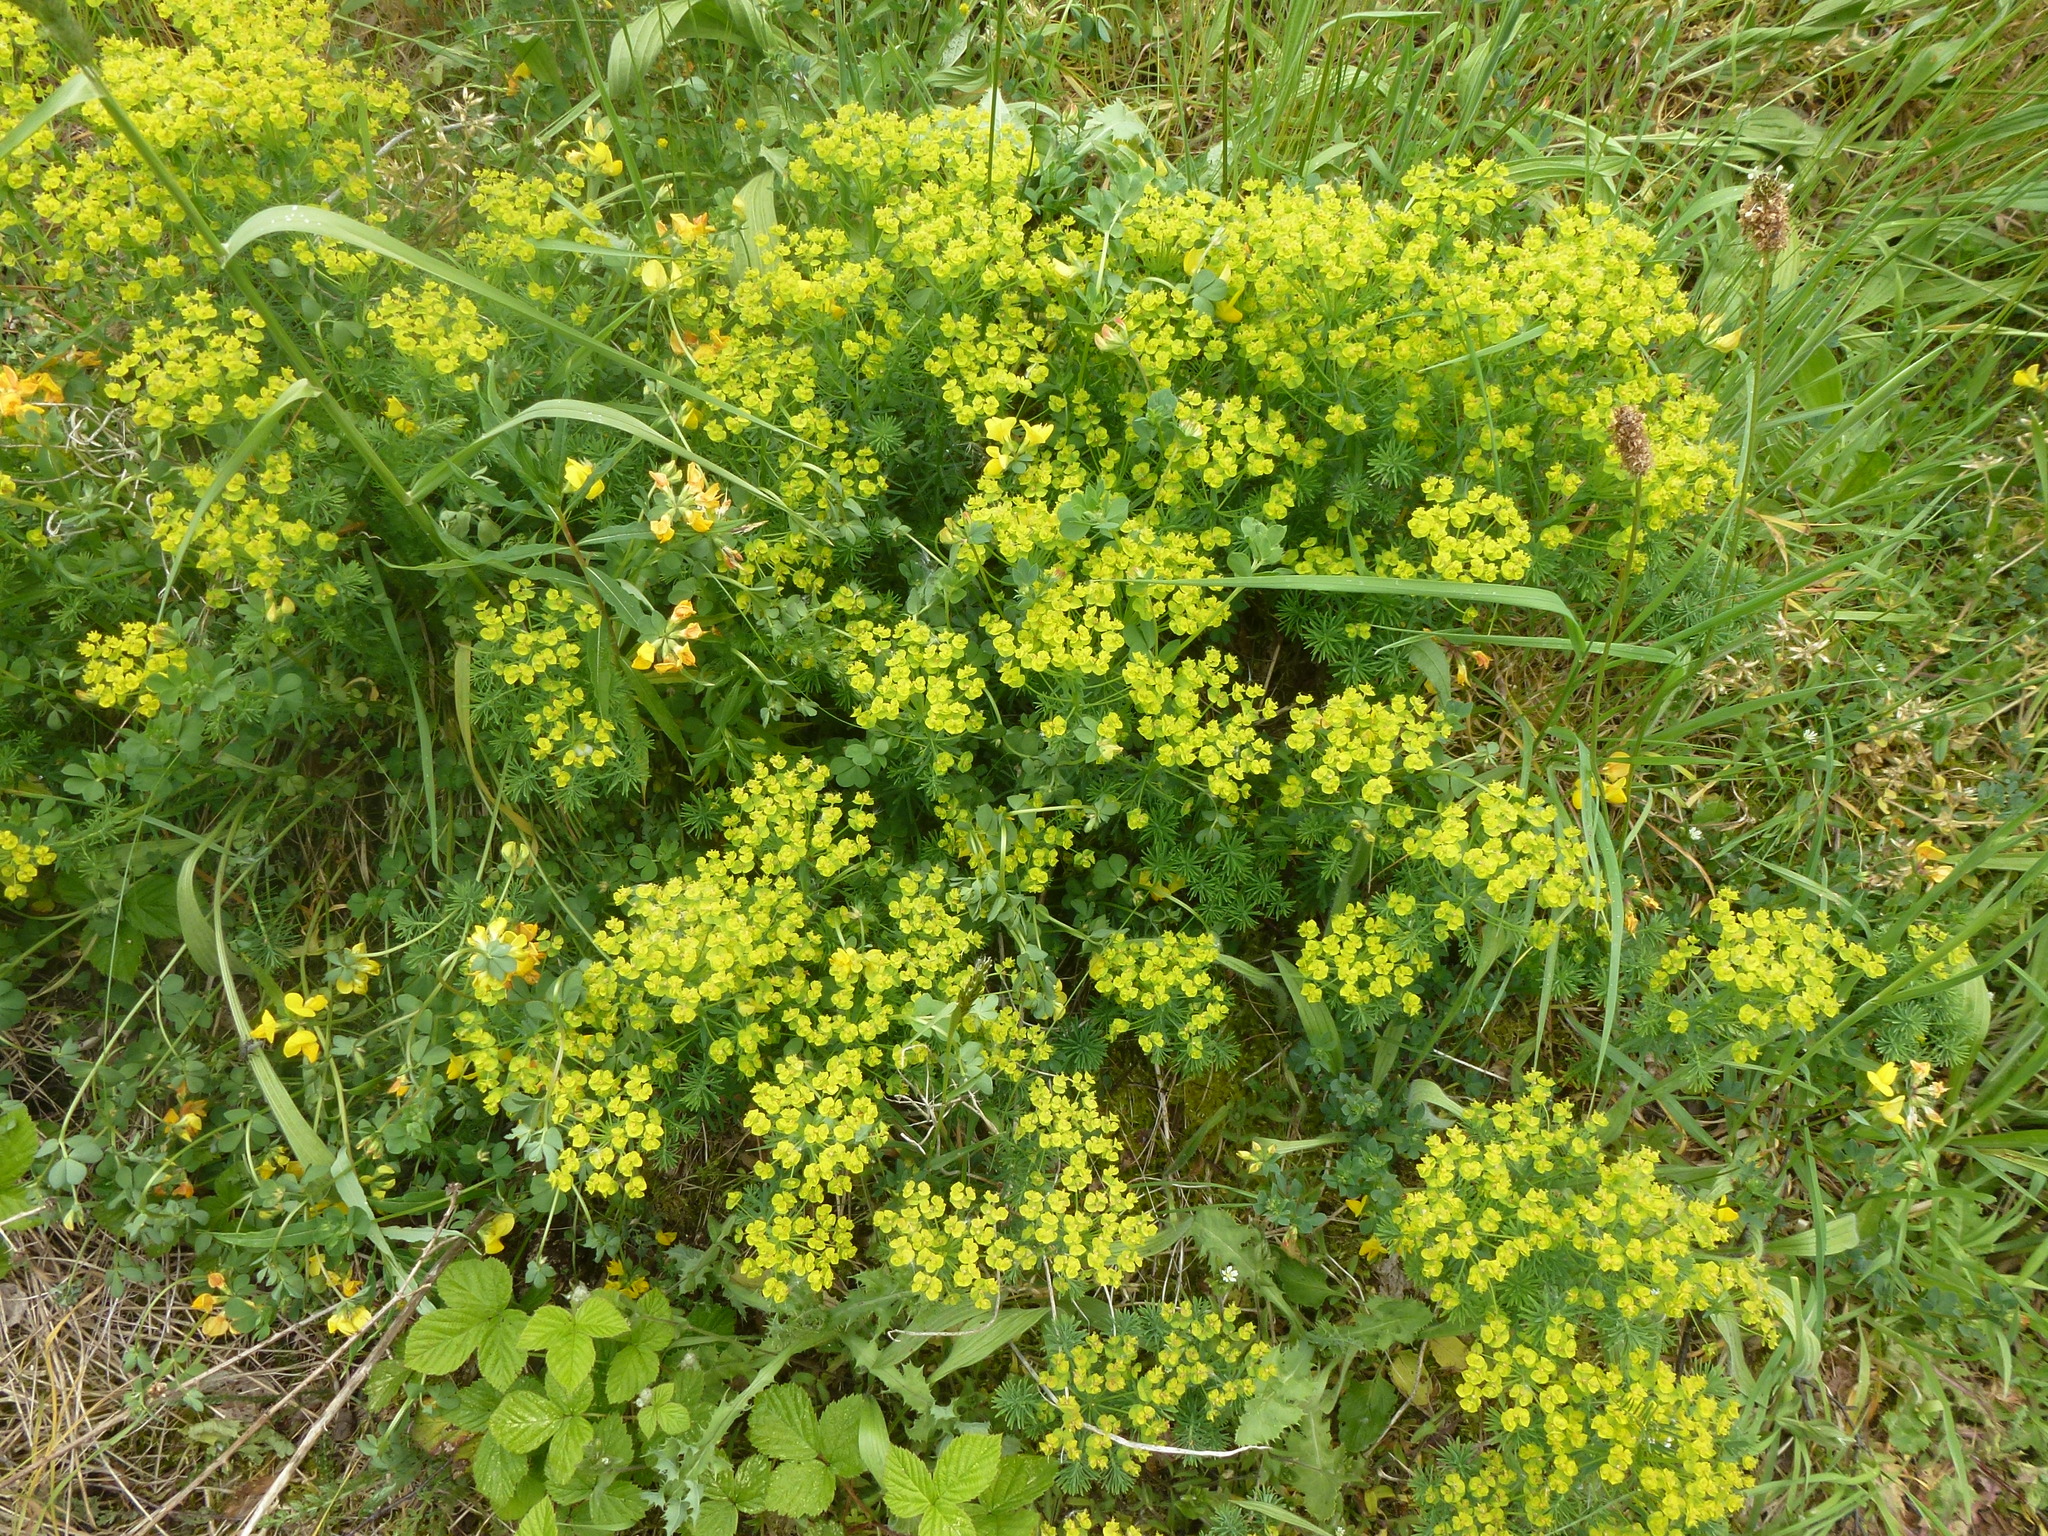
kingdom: Plantae
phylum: Tracheophyta
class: Magnoliopsida
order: Malpighiales
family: Euphorbiaceae
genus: Euphorbia
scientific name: Euphorbia cyparissias
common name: Cypress spurge
